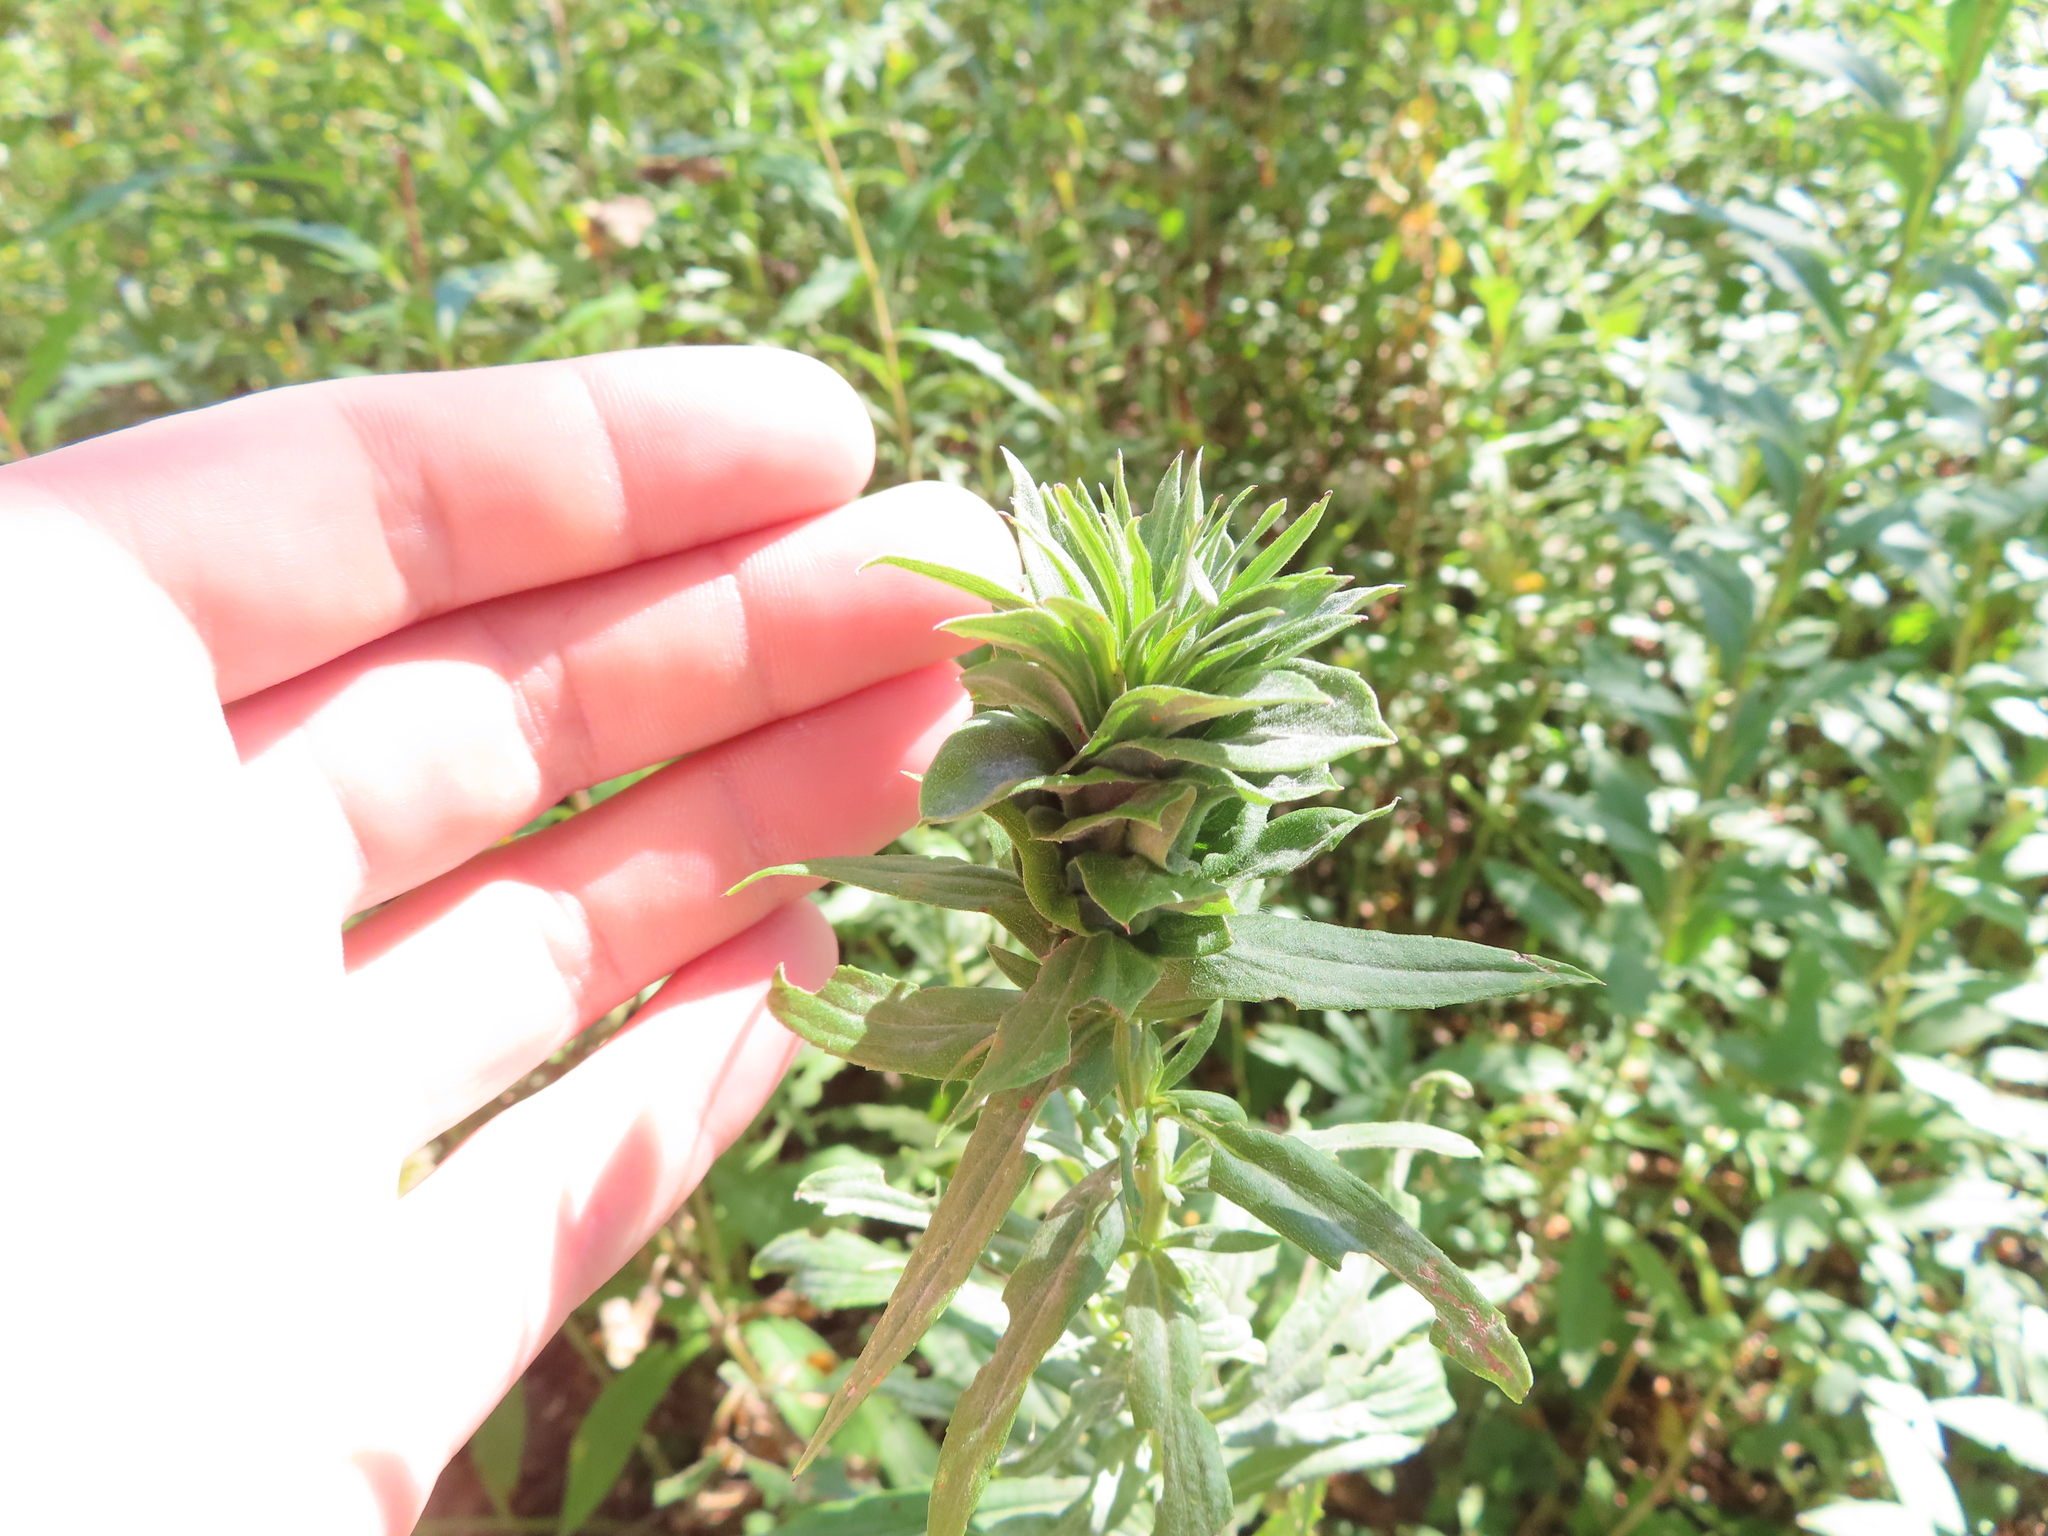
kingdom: Animalia
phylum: Arthropoda
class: Insecta
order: Diptera
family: Cecidomyiidae
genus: Rhopalomyia
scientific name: Rhopalomyia solidaginis
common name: Goldenrod bunch gall midge
